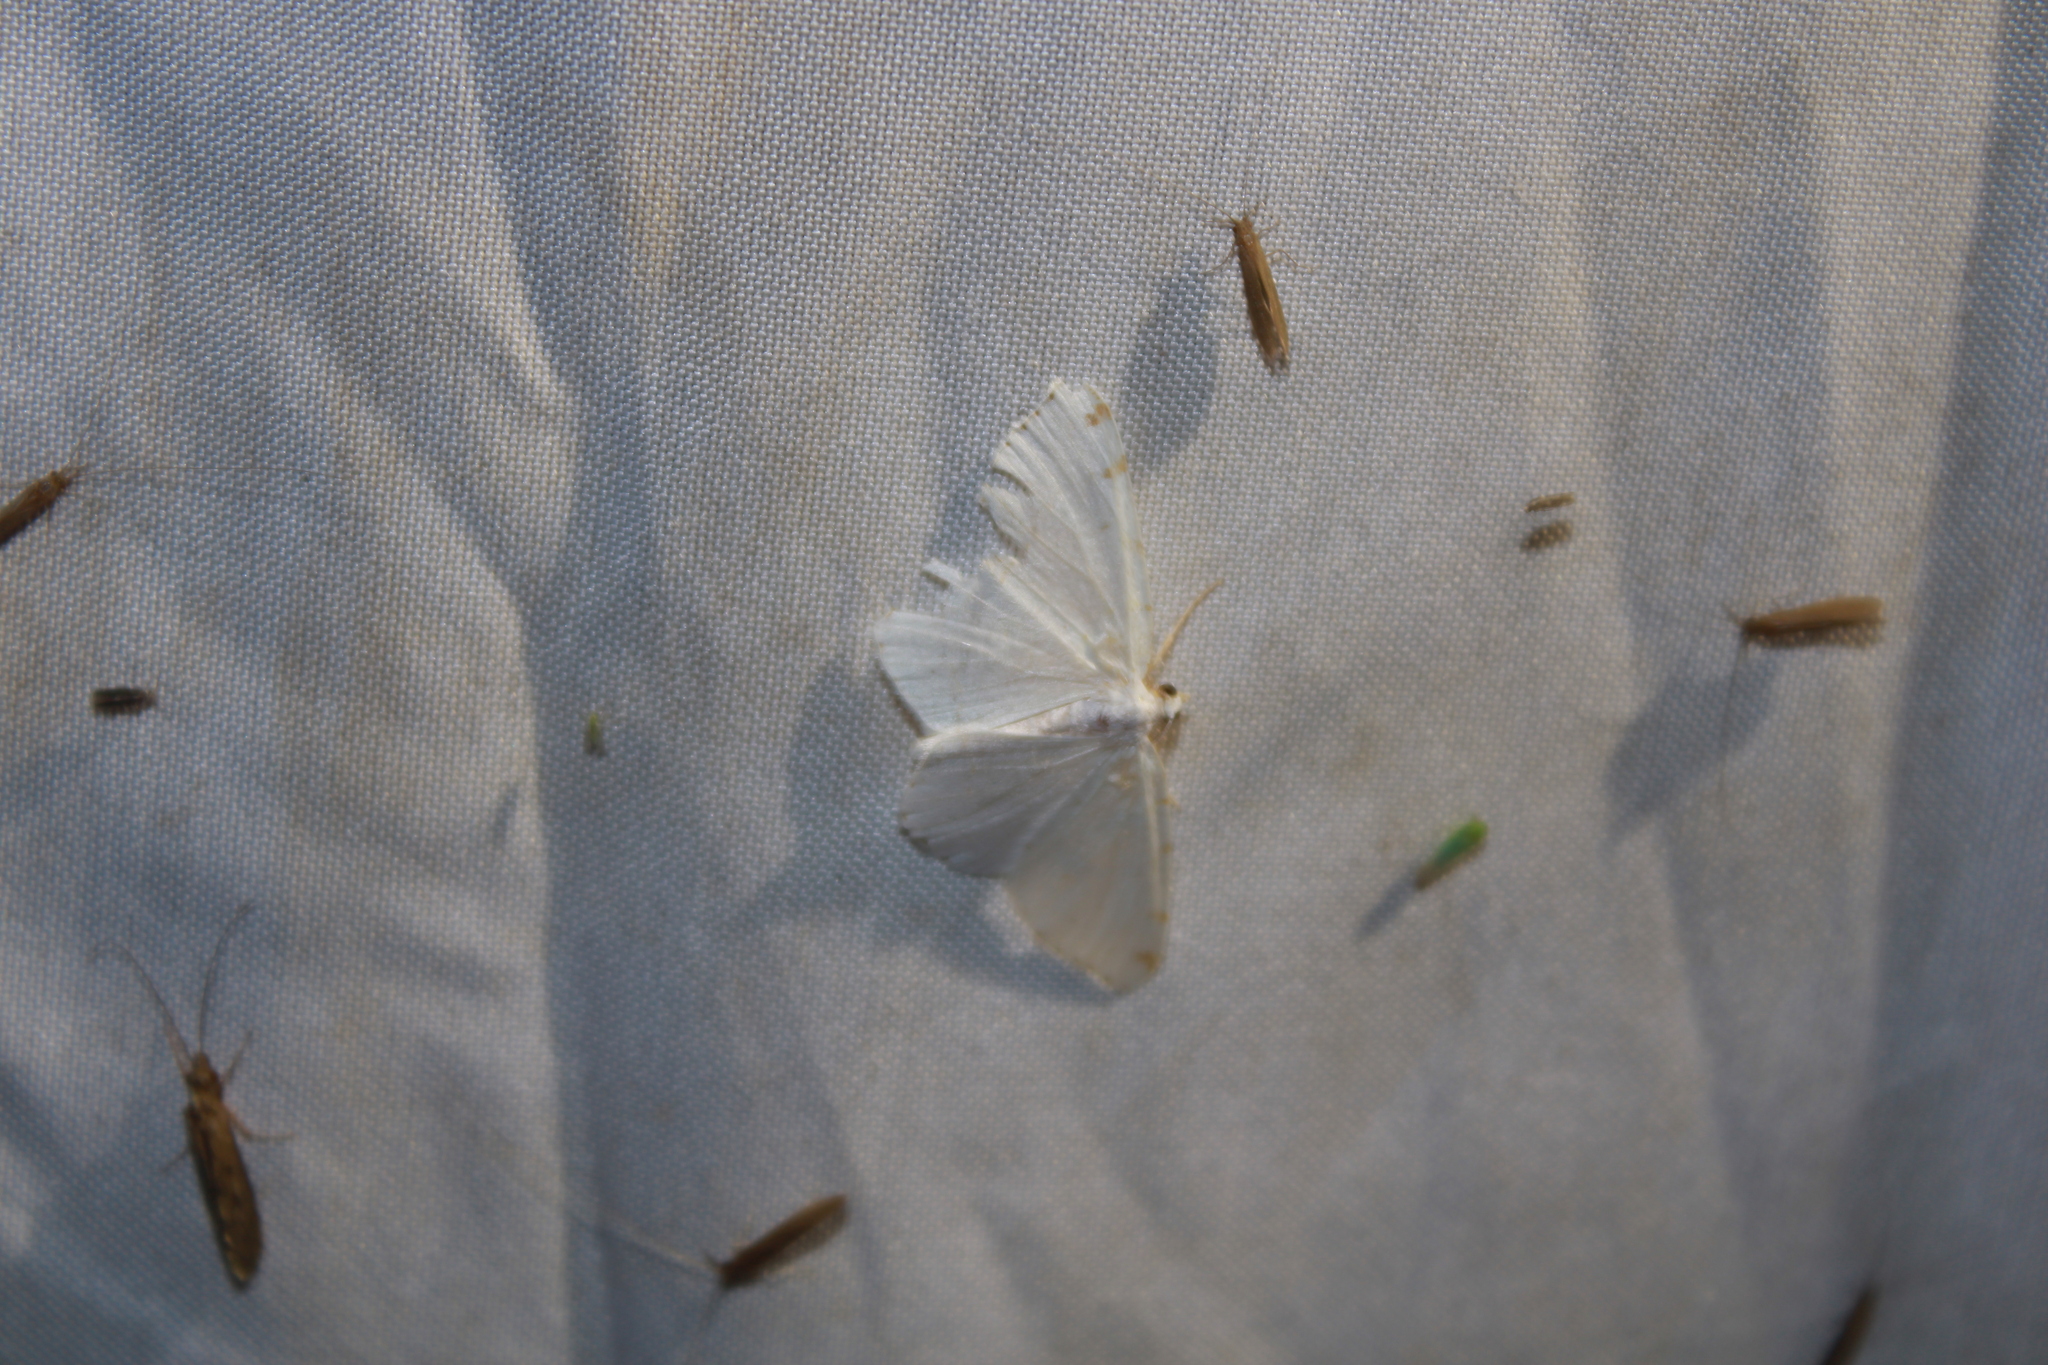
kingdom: Animalia
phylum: Arthropoda
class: Insecta
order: Lepidoptera
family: Geometridae
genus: Macaria
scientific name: Macaria pustularia
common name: Lesser maple spanworm moth
